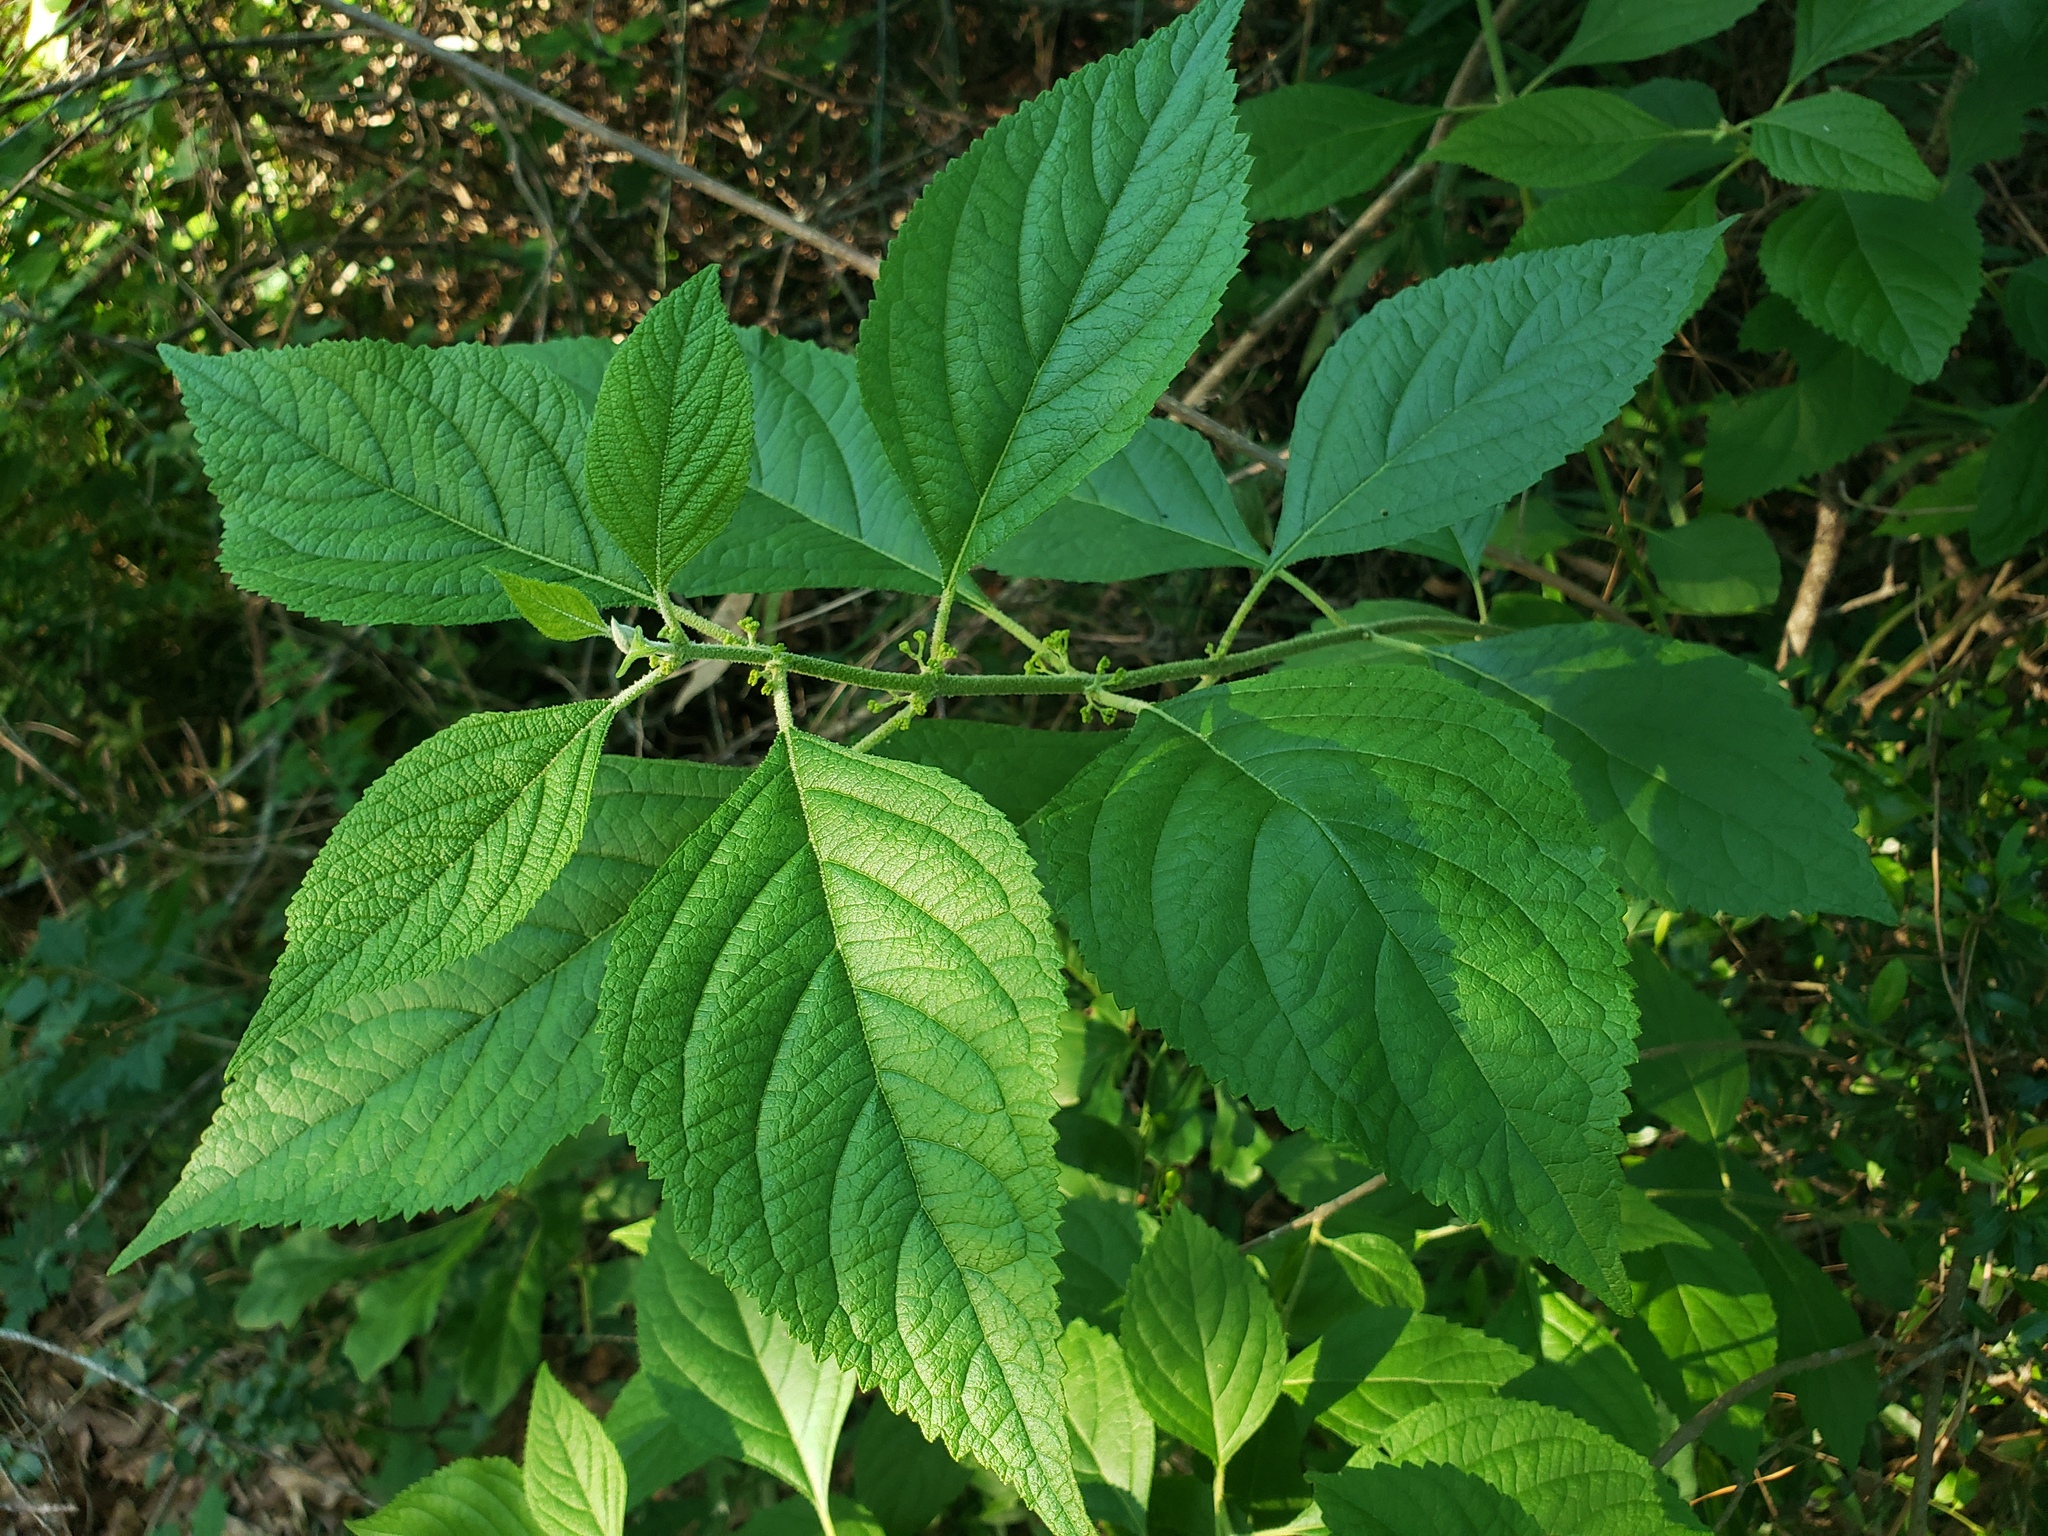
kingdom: Plantae
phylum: Tracheophyta
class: Magnoliopsida
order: Lamiales
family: Lamiaceae
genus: Callicarpa
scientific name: Callicarpa americana
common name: American beautyberry
